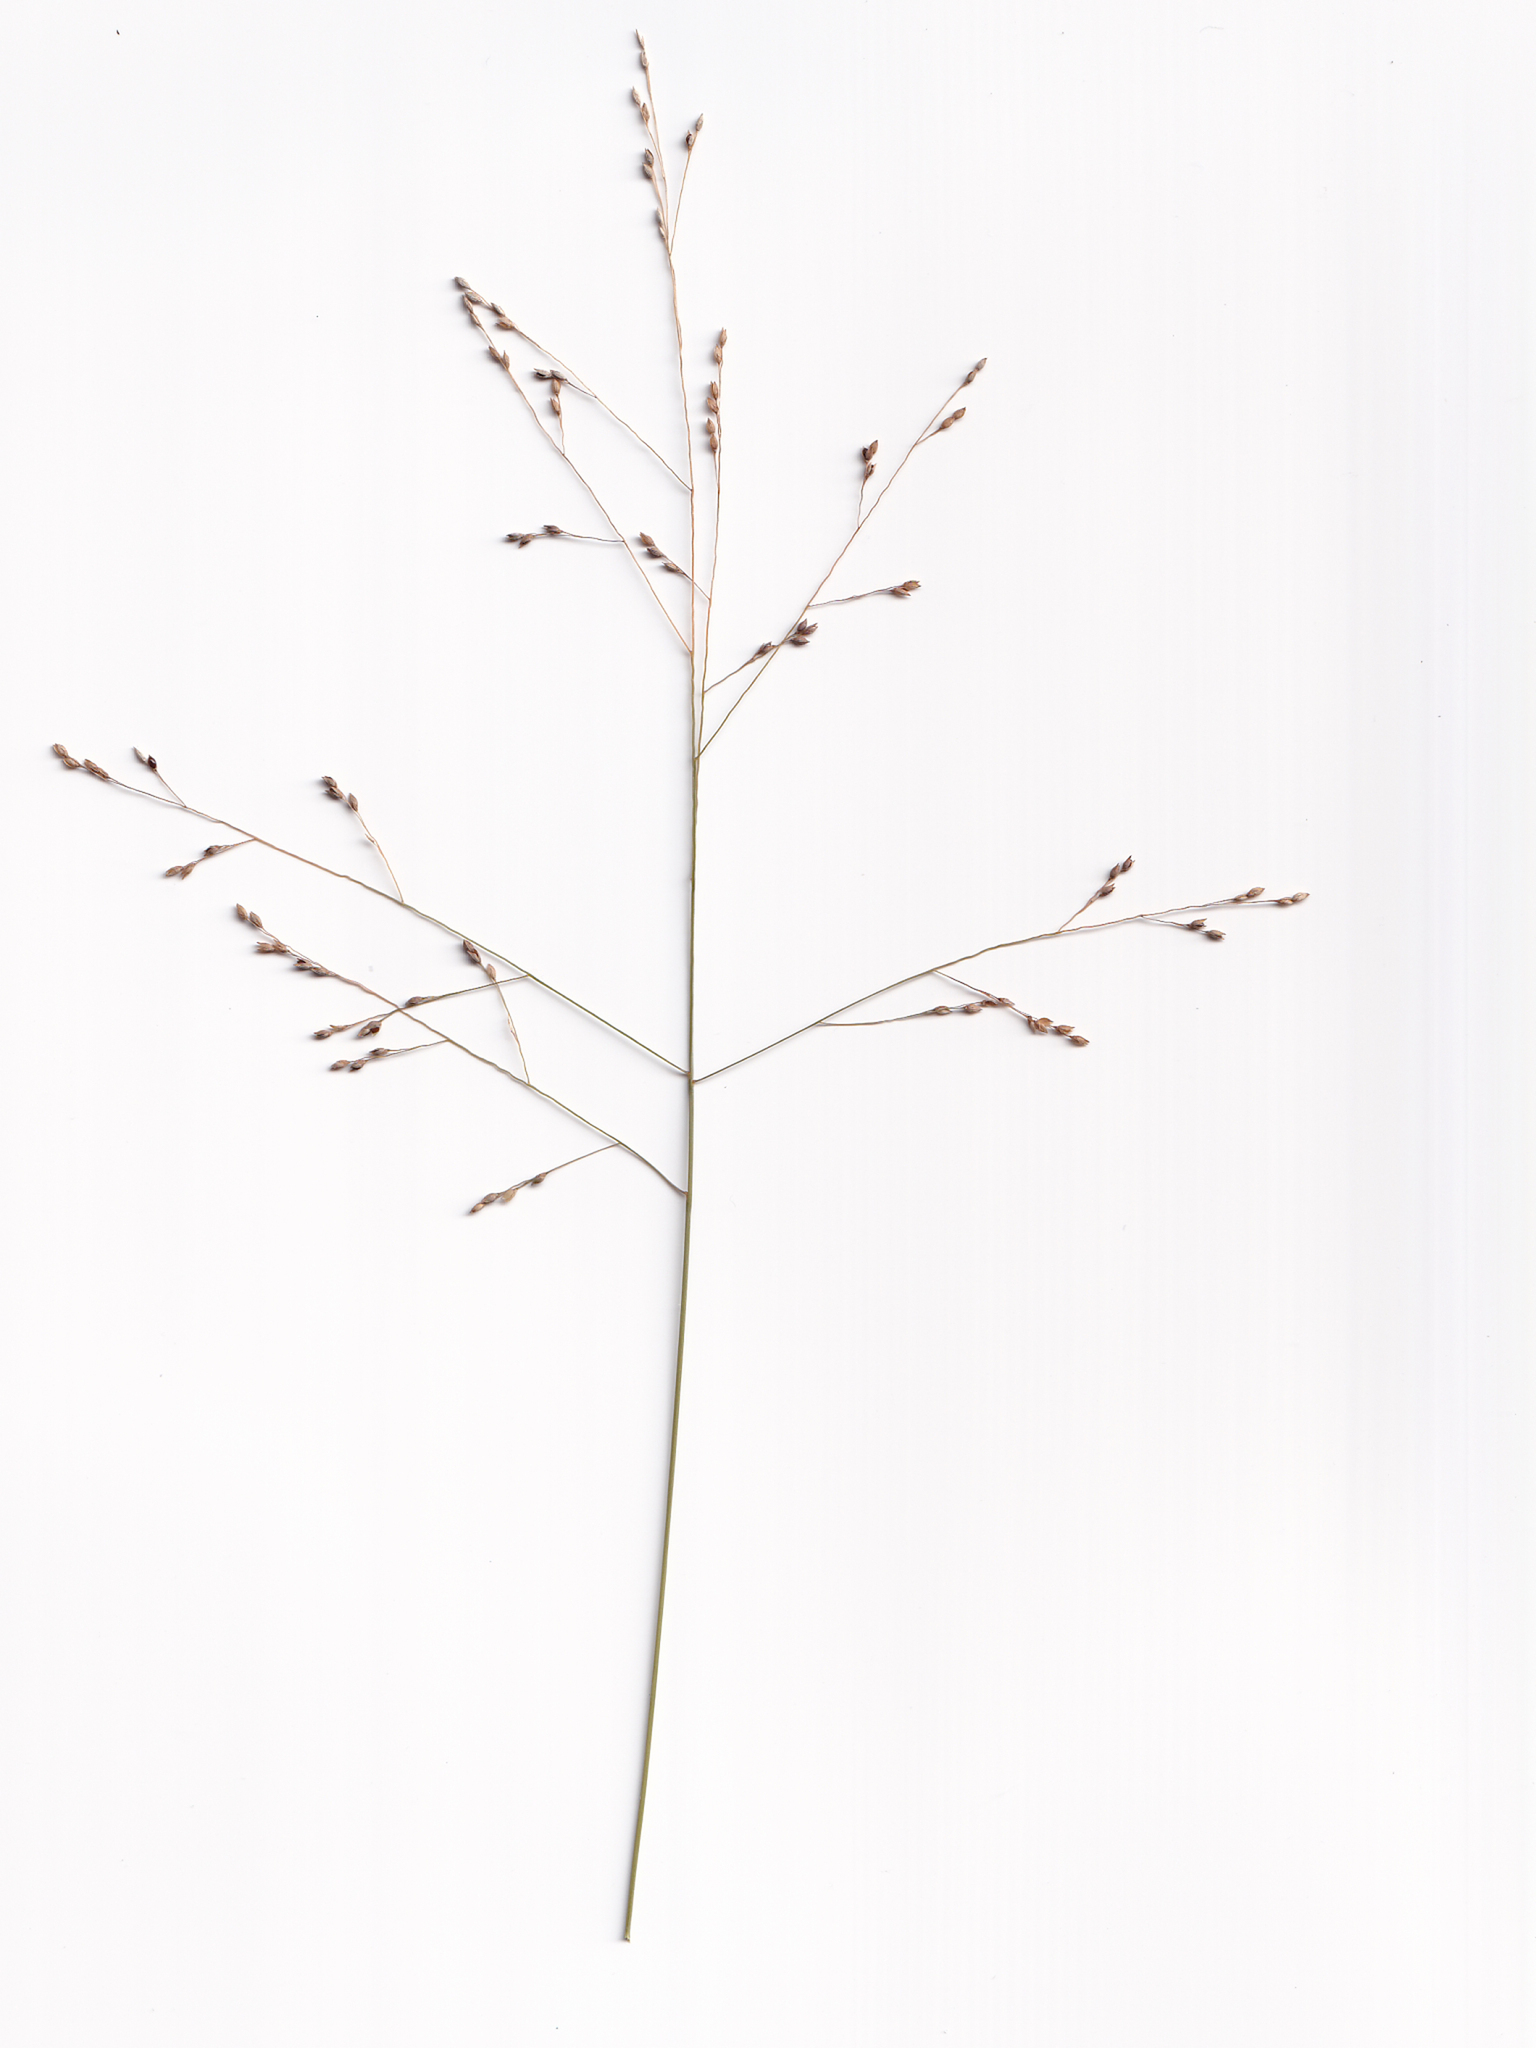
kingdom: Plantae
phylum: Tracheophyta
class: Liliopsida
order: Poales
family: Poaceae
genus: Panicum
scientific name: Panicum effusum
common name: Hairy panic grass
